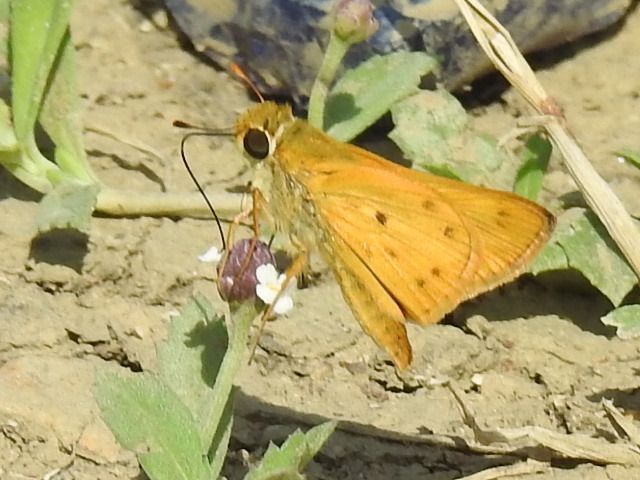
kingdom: Animalia
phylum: Arthropoda
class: Insecta
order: Lepidoptera
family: Hesperiidae
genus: Hylephila
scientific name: Hylephila phyleus
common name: Fiery skipper
